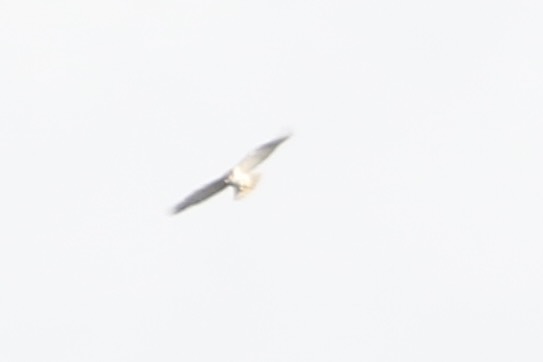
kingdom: Animalia
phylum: Chordata
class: Aves
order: Falconiformes
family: Falconidae
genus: Falco
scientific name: Falco peregrinus
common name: Peregrine falcon
